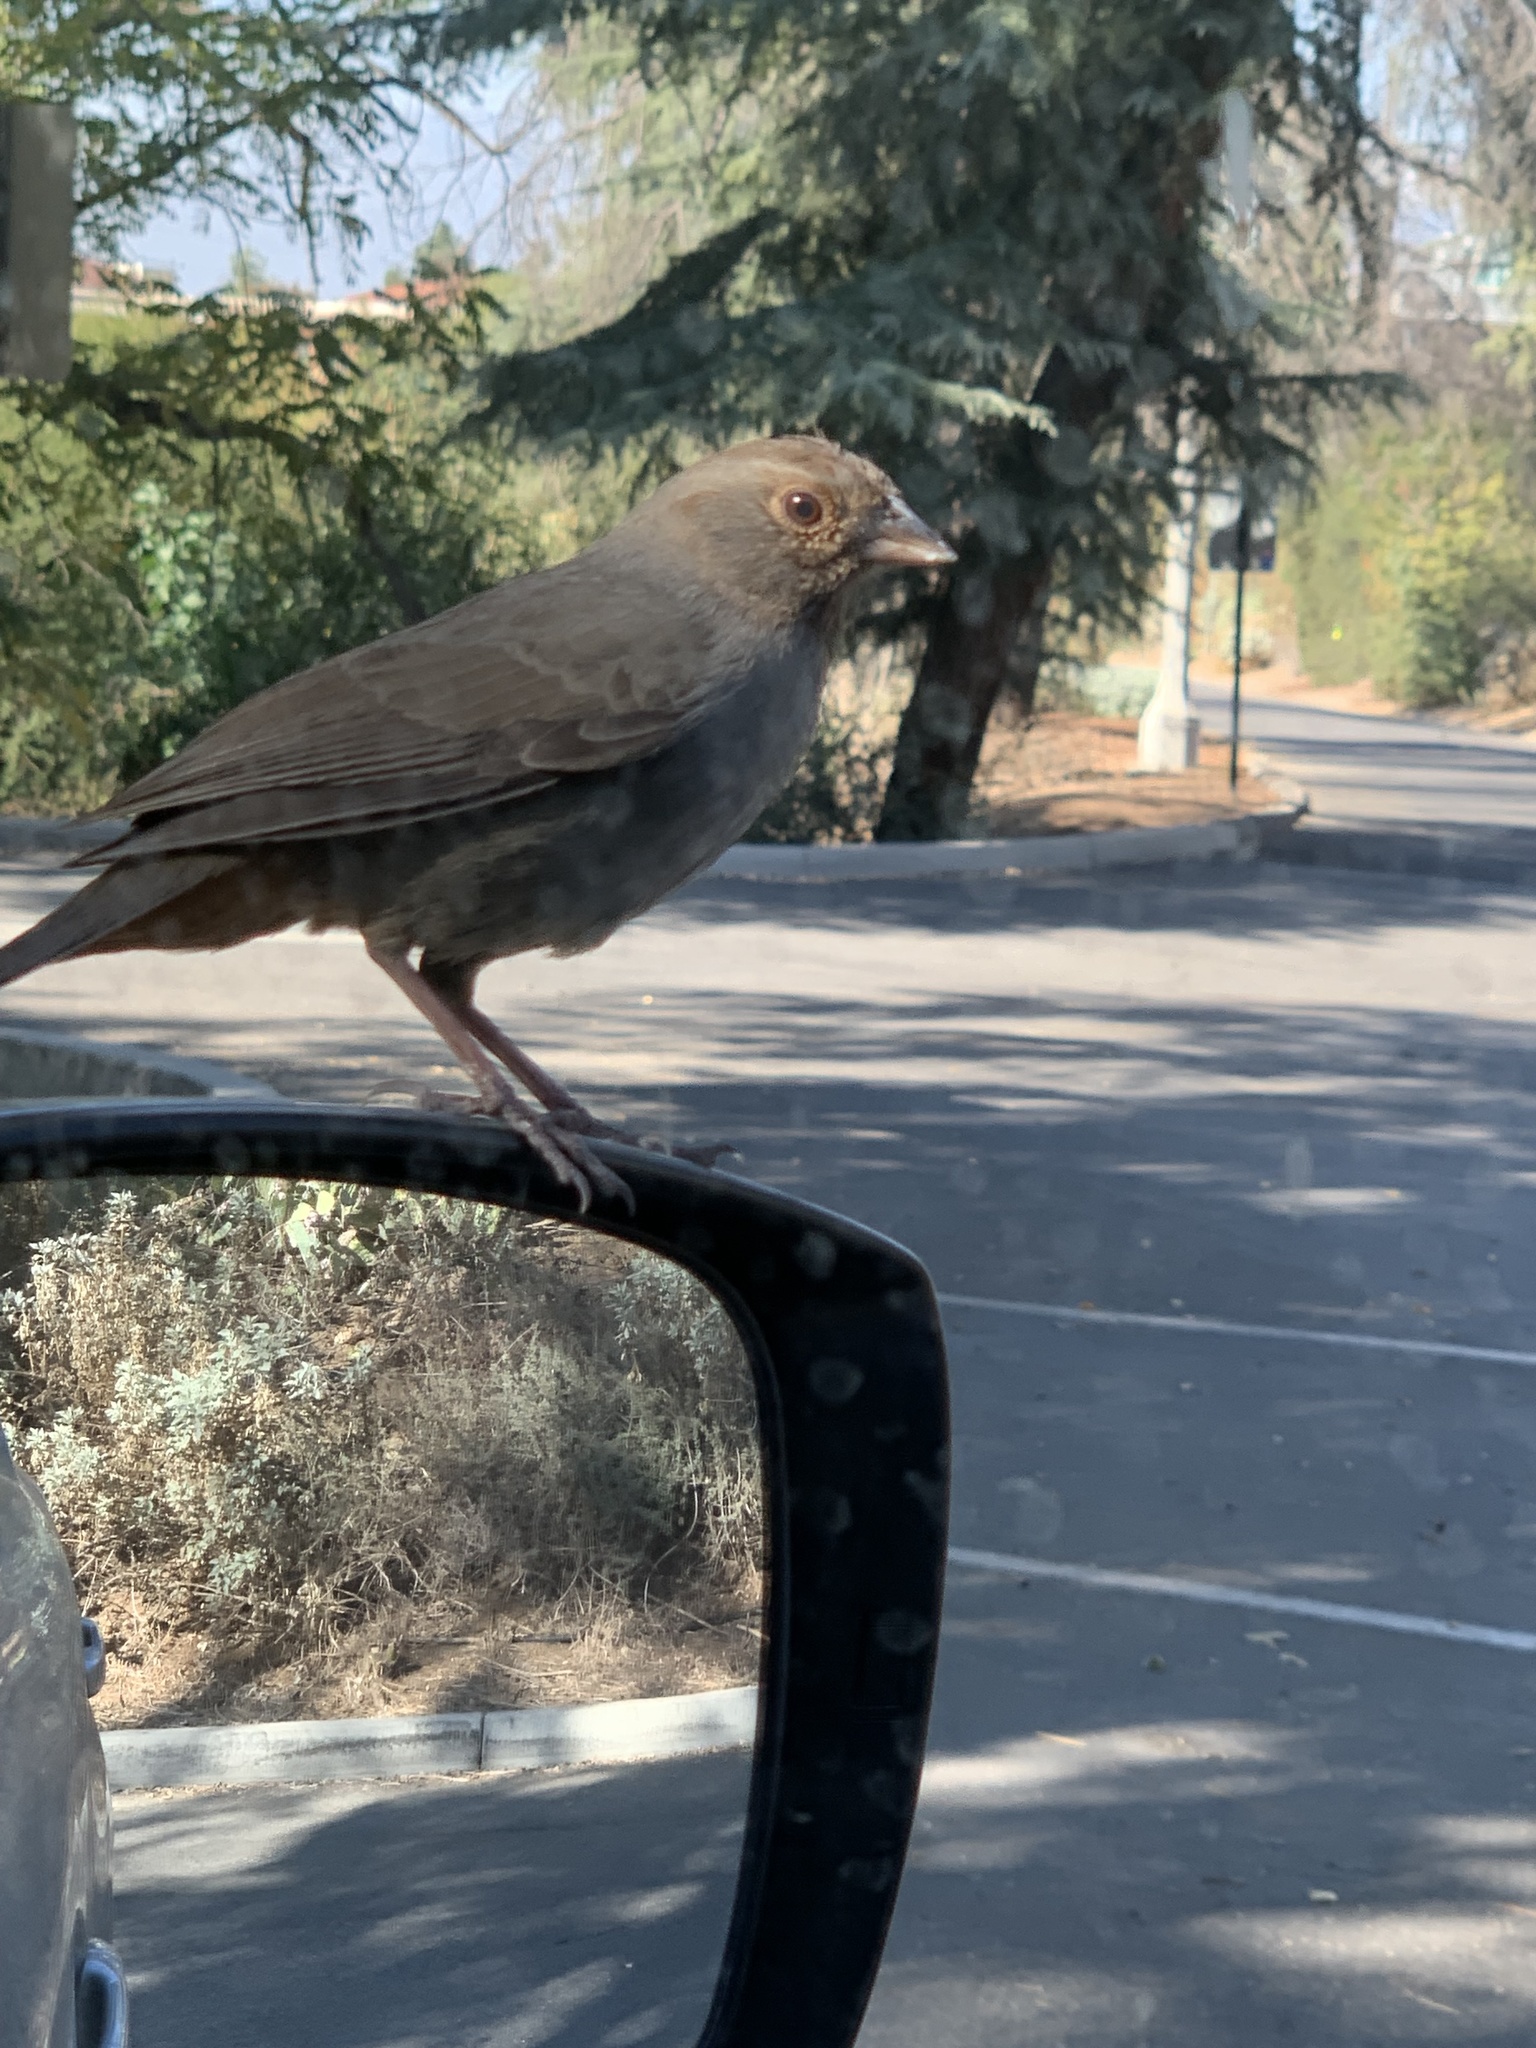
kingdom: Animalia
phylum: Chordata
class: Aves
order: Passeriformes
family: Passerellidae
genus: Melozone
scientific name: Melozone crissalis
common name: California towhee
